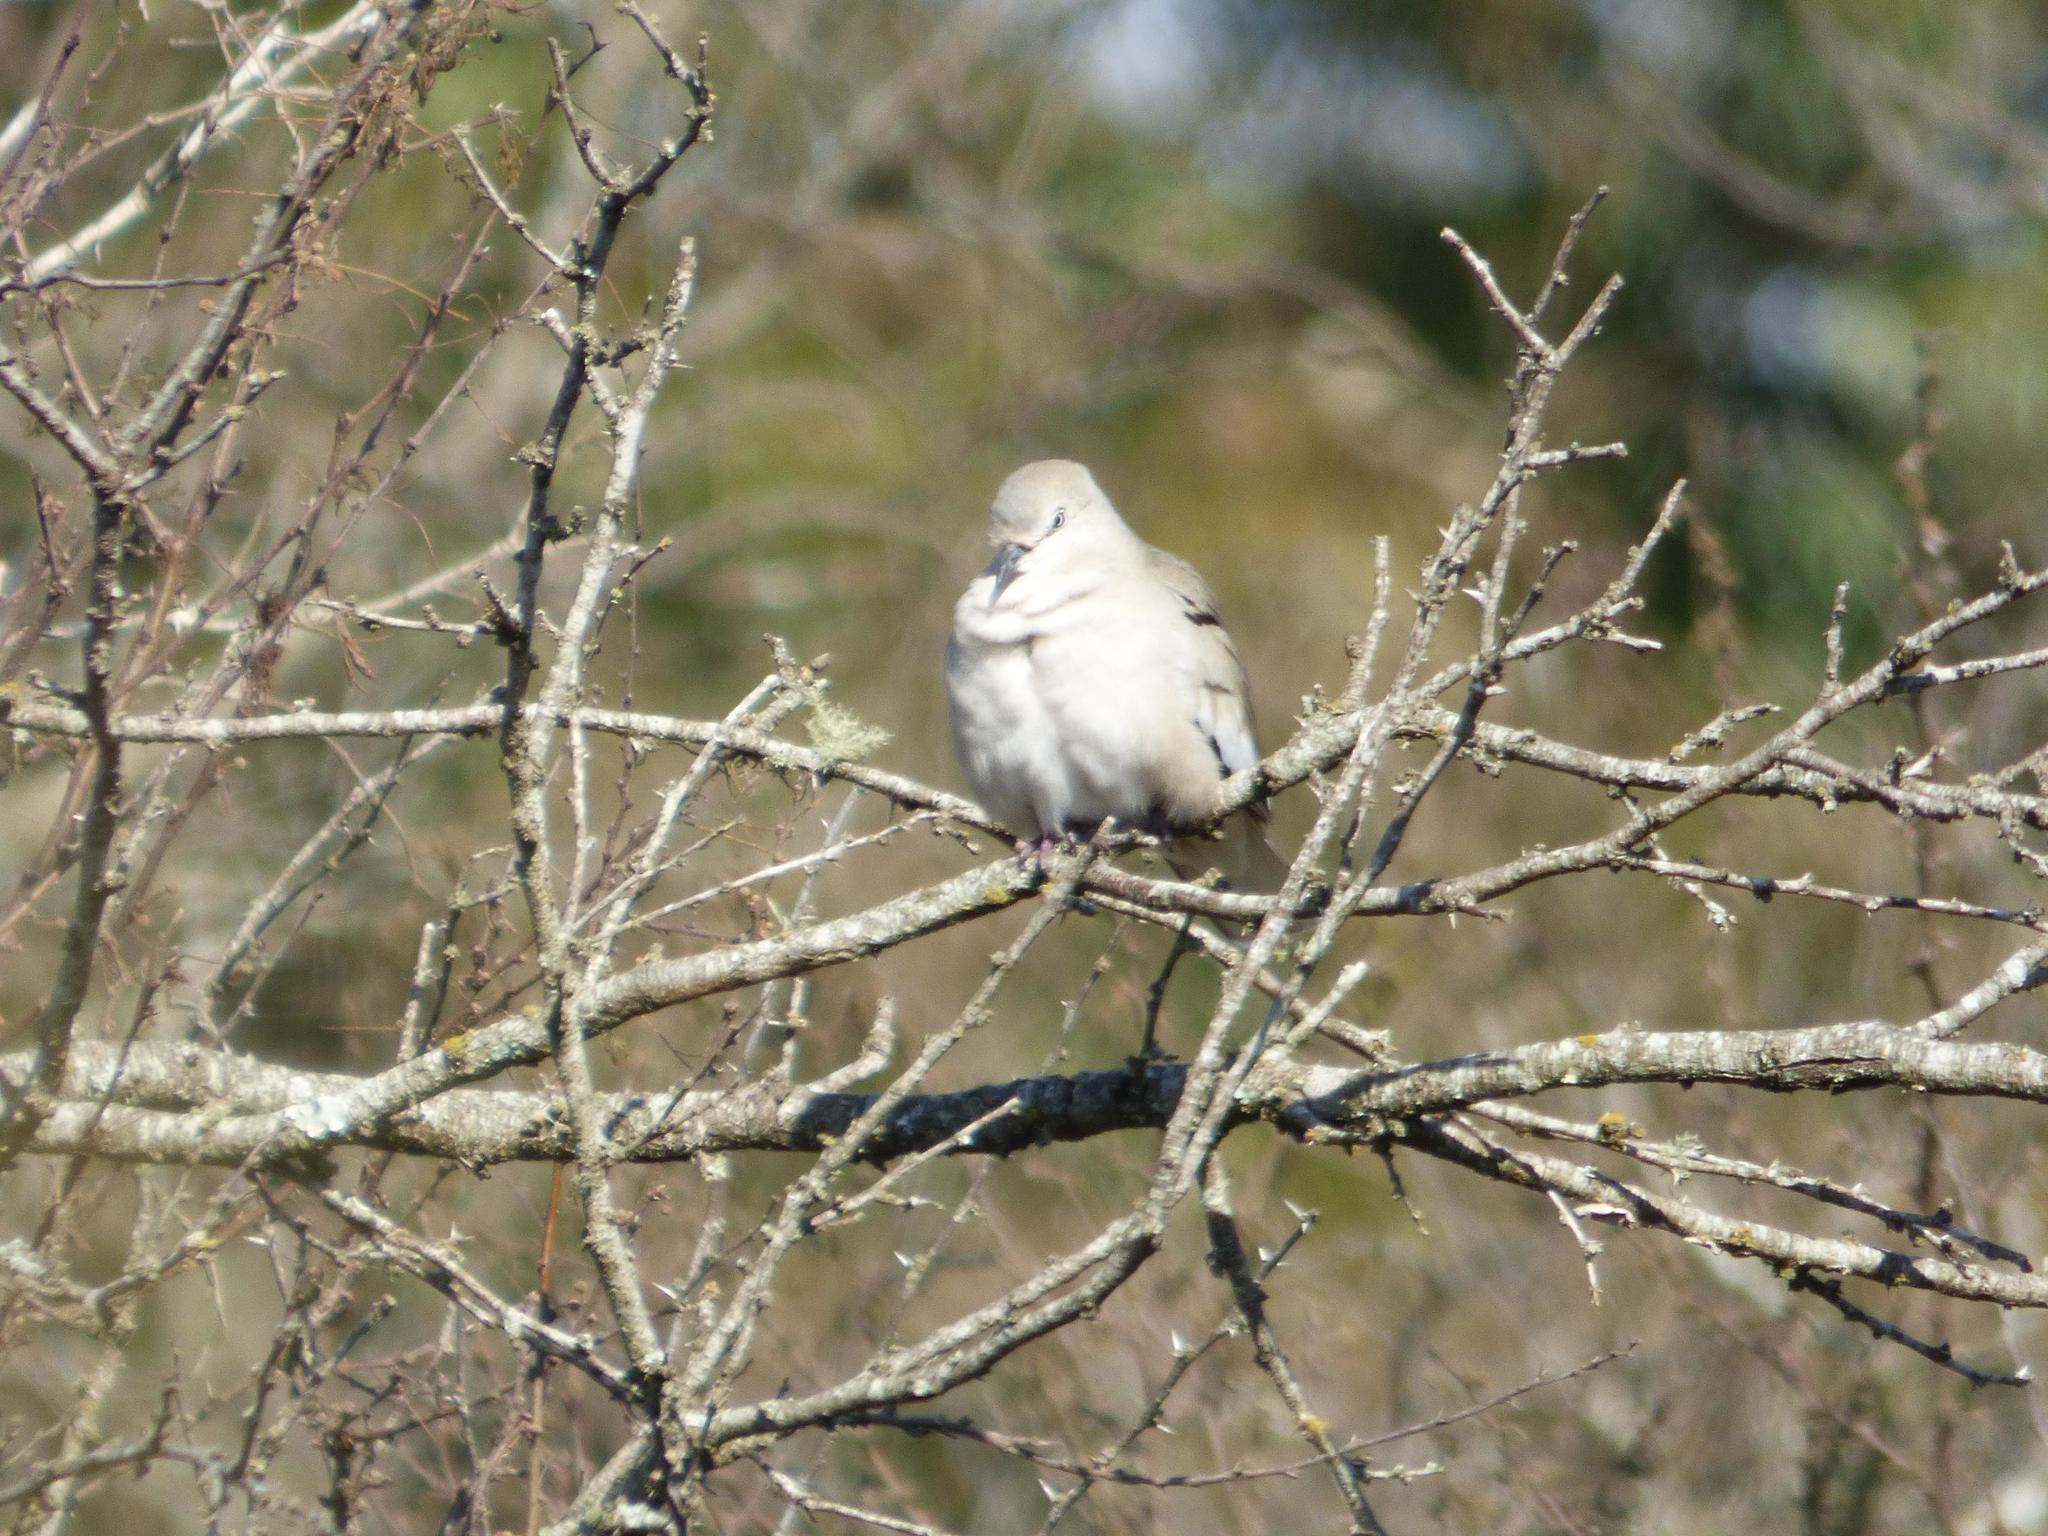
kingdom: Animalia
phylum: Chordata
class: Aves
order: Columbiformes
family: Columbidae
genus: Columbina
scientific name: Columbina picui
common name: Picui ground dove
